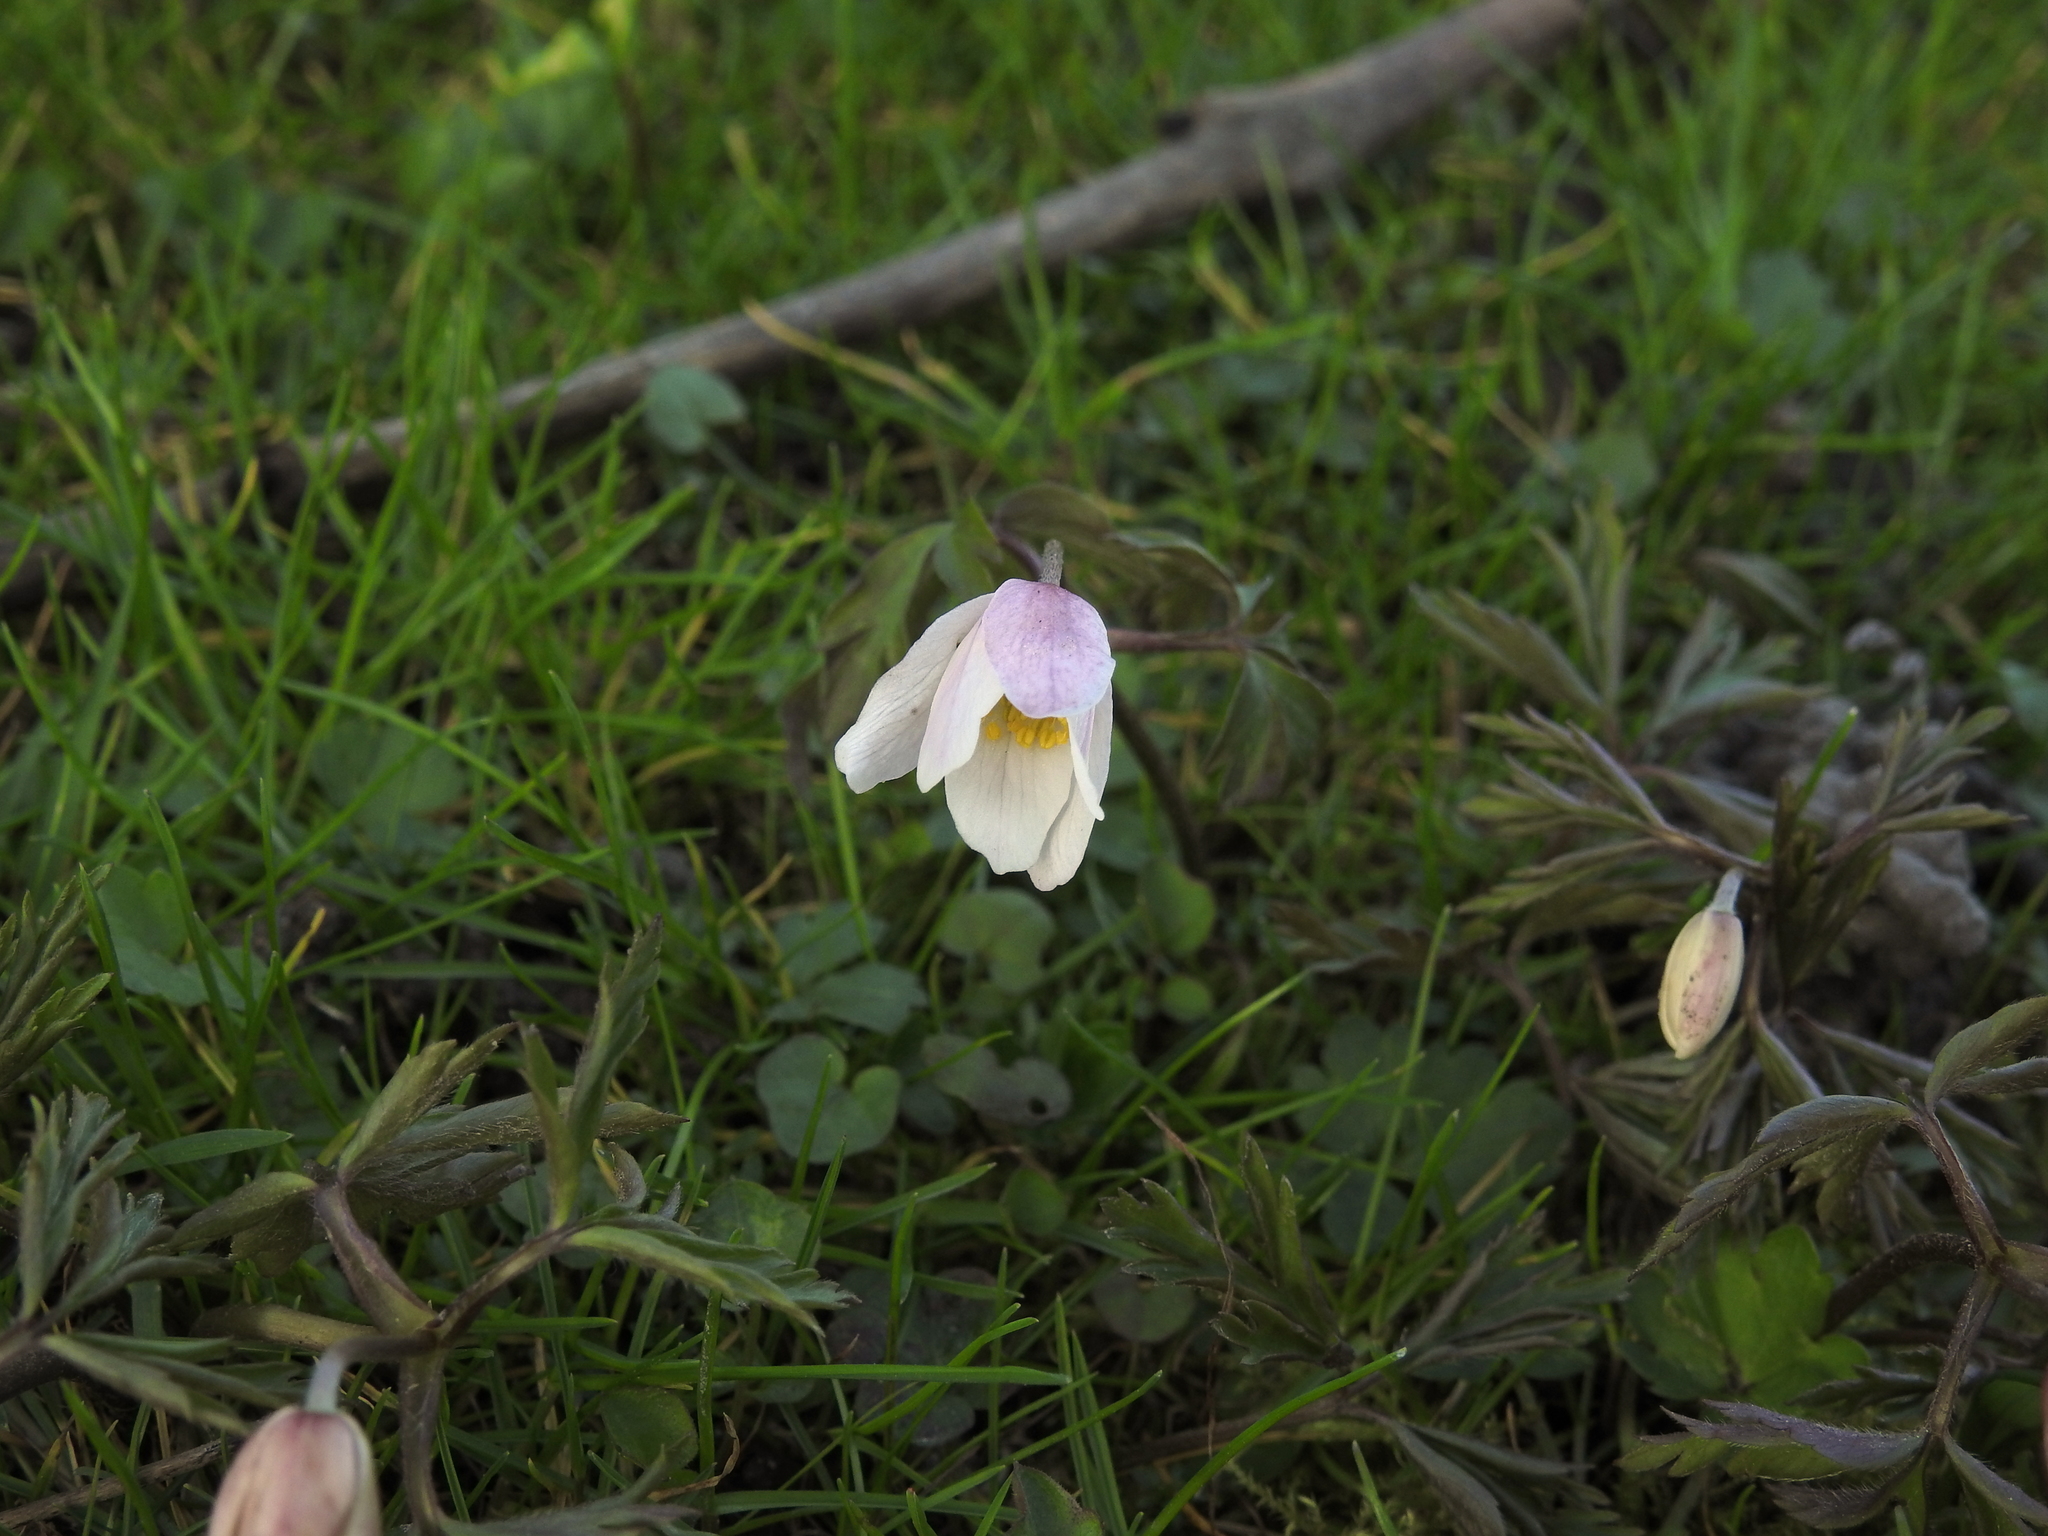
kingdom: Plantae
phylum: Tracheophyta
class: Magnoliopsida
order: Ranunculales
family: Ranunculaceae
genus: Anemone
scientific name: Anemone nemorosa
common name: Wood anemone
